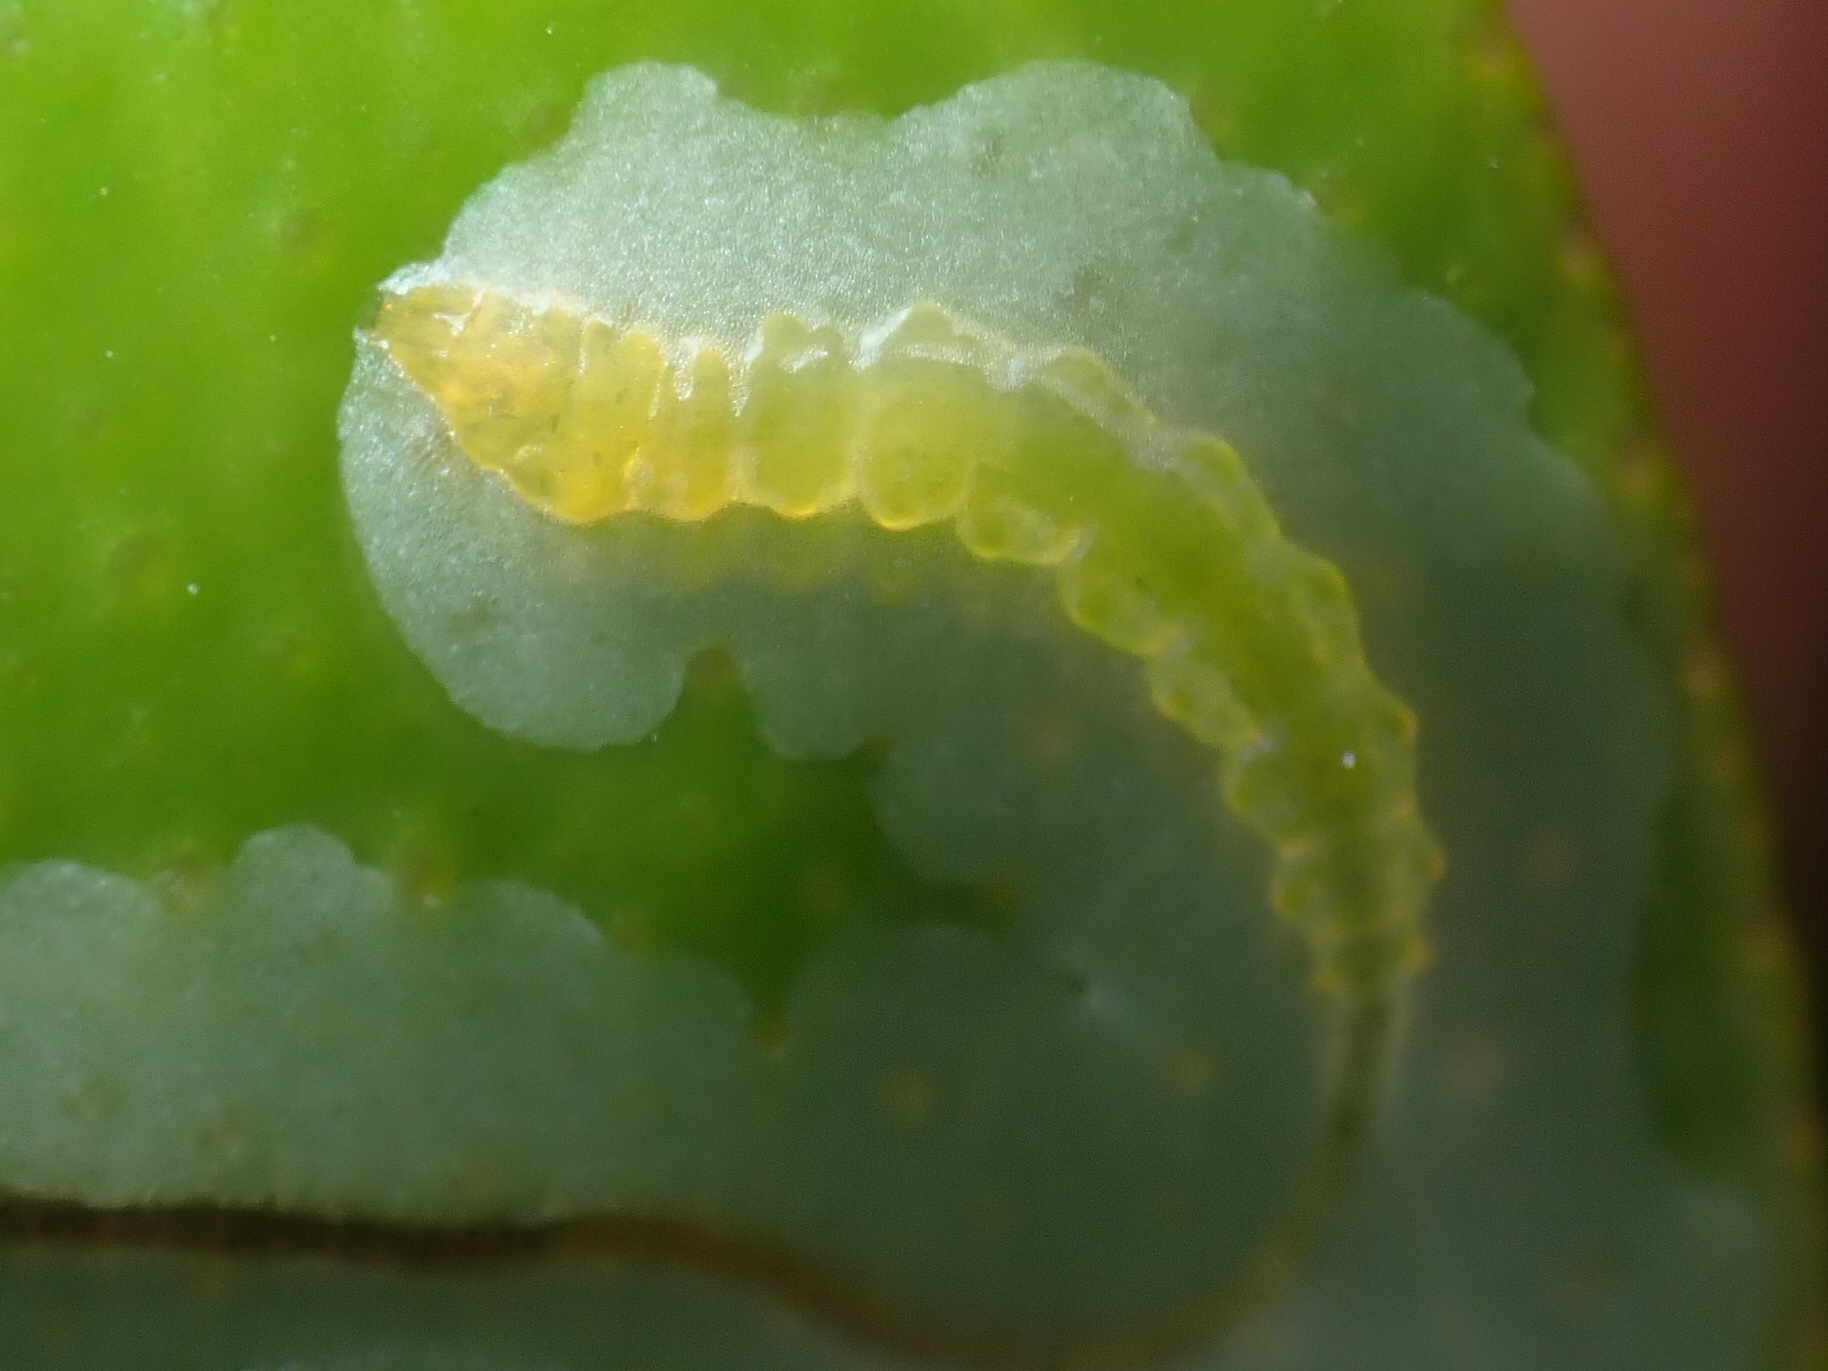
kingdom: Animalia
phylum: Arthropoda
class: Insecta
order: Lepidoptera
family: Gracillariidae
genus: Phyllocnistis
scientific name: Phyllocnistis citrella
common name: Citrus leafminer
